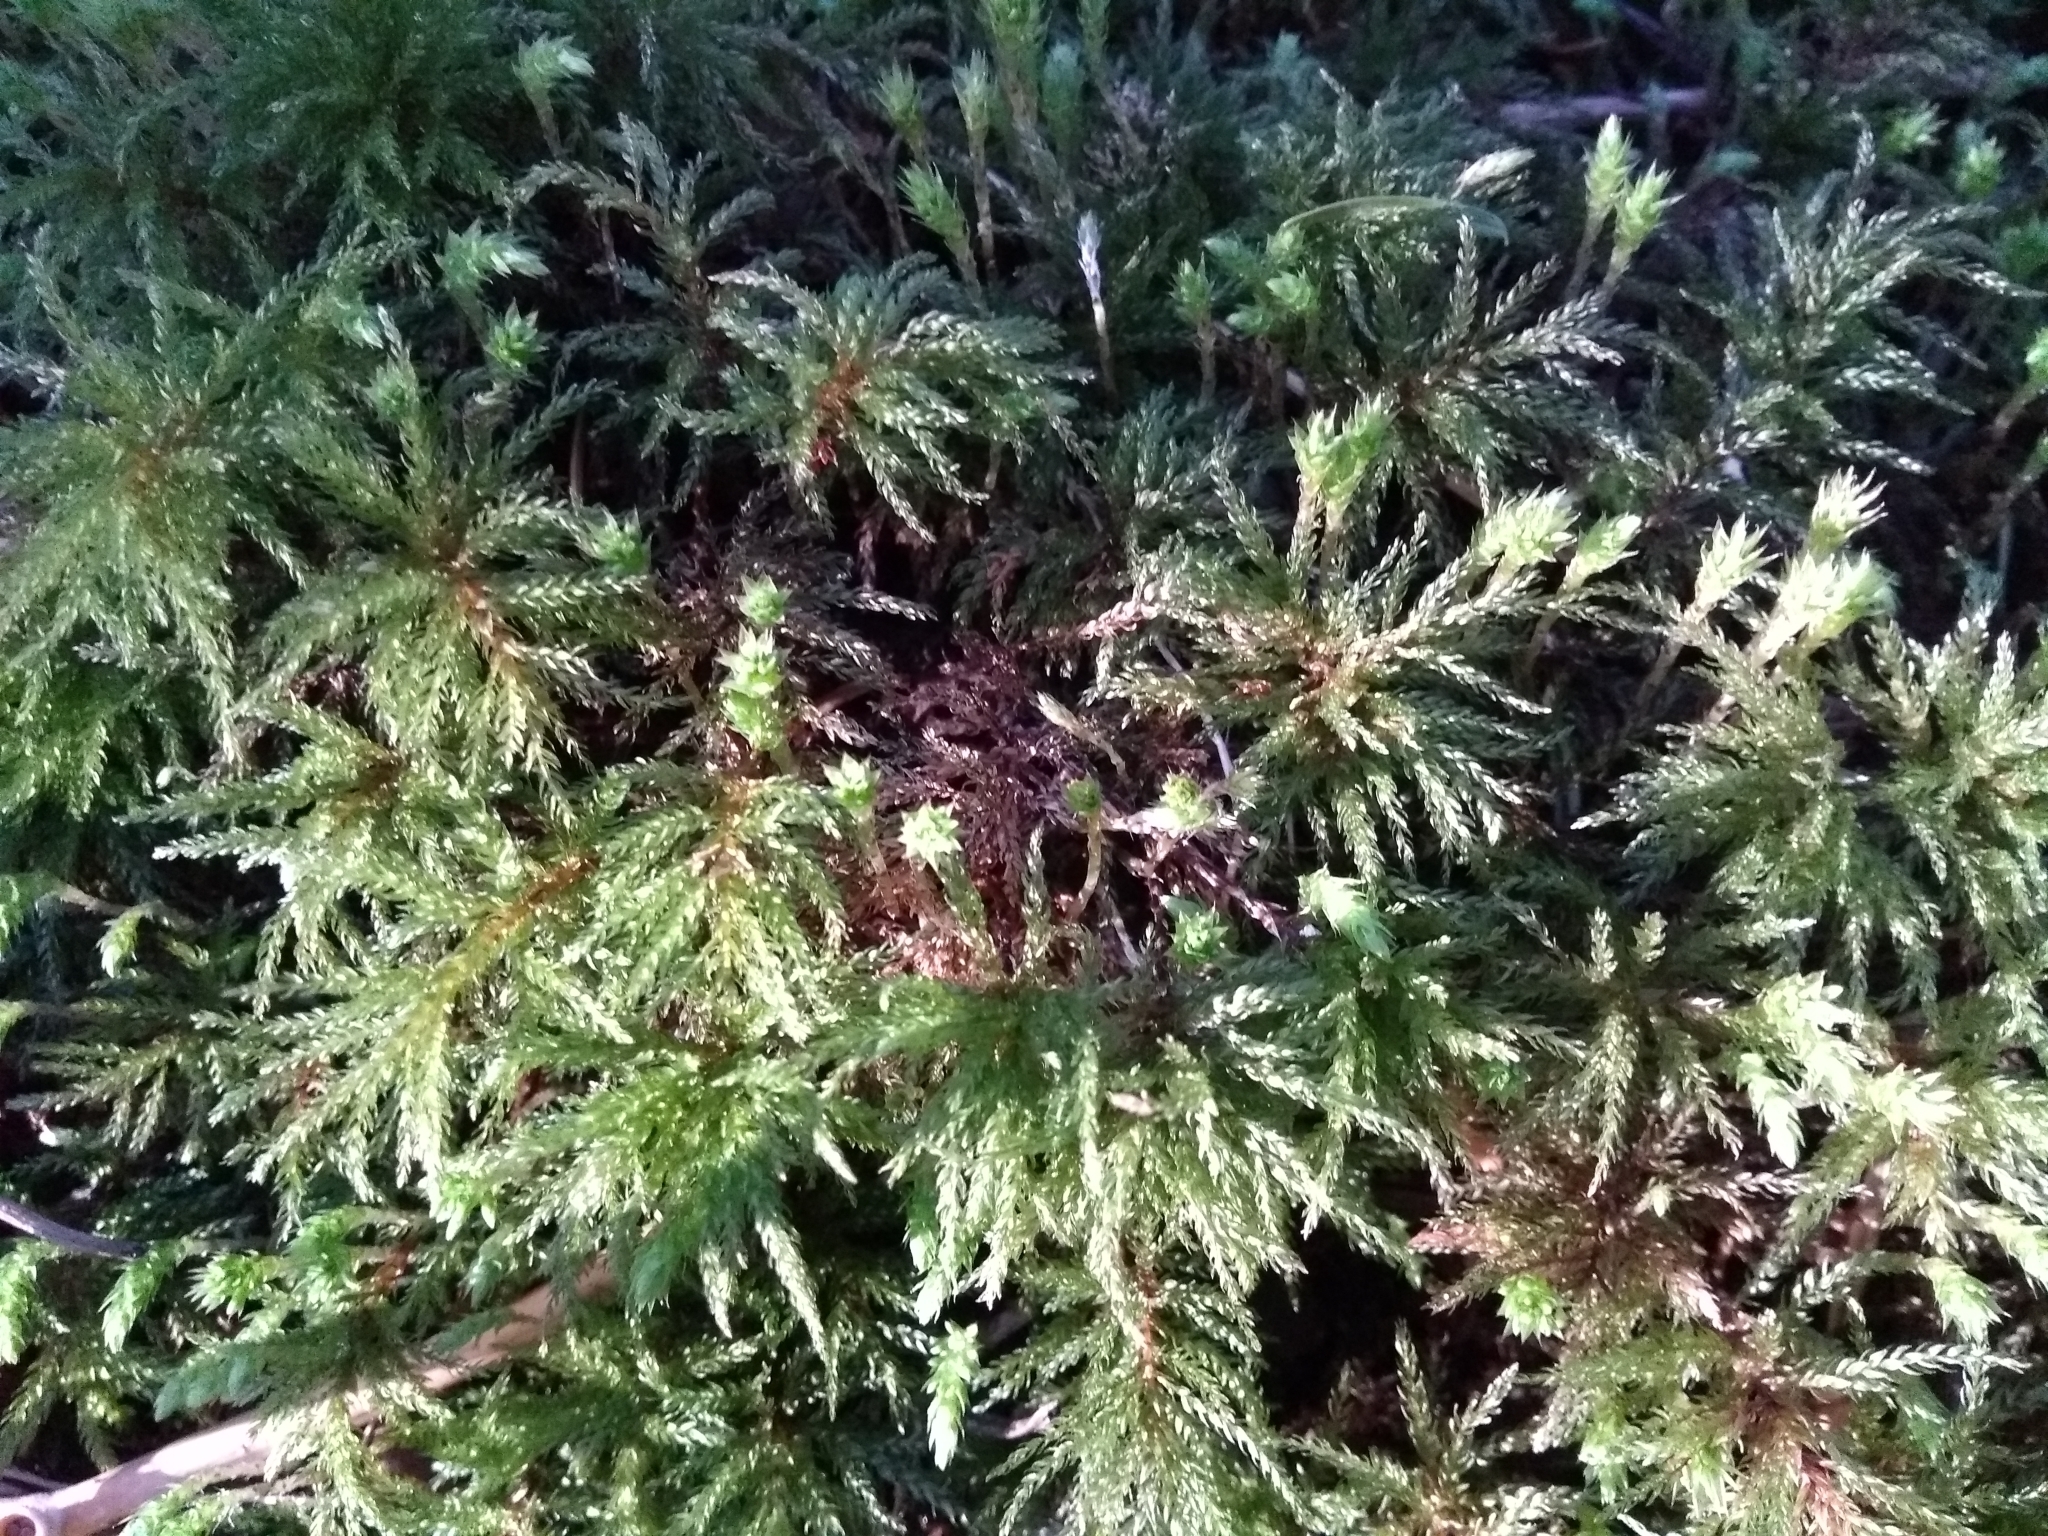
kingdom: Plantae
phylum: Bryophyta
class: Bryopsida
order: Bryales
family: Mniaceae
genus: Leucolepis
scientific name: Leucolepis acanthoneura
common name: Leucolepis umbrella moss
